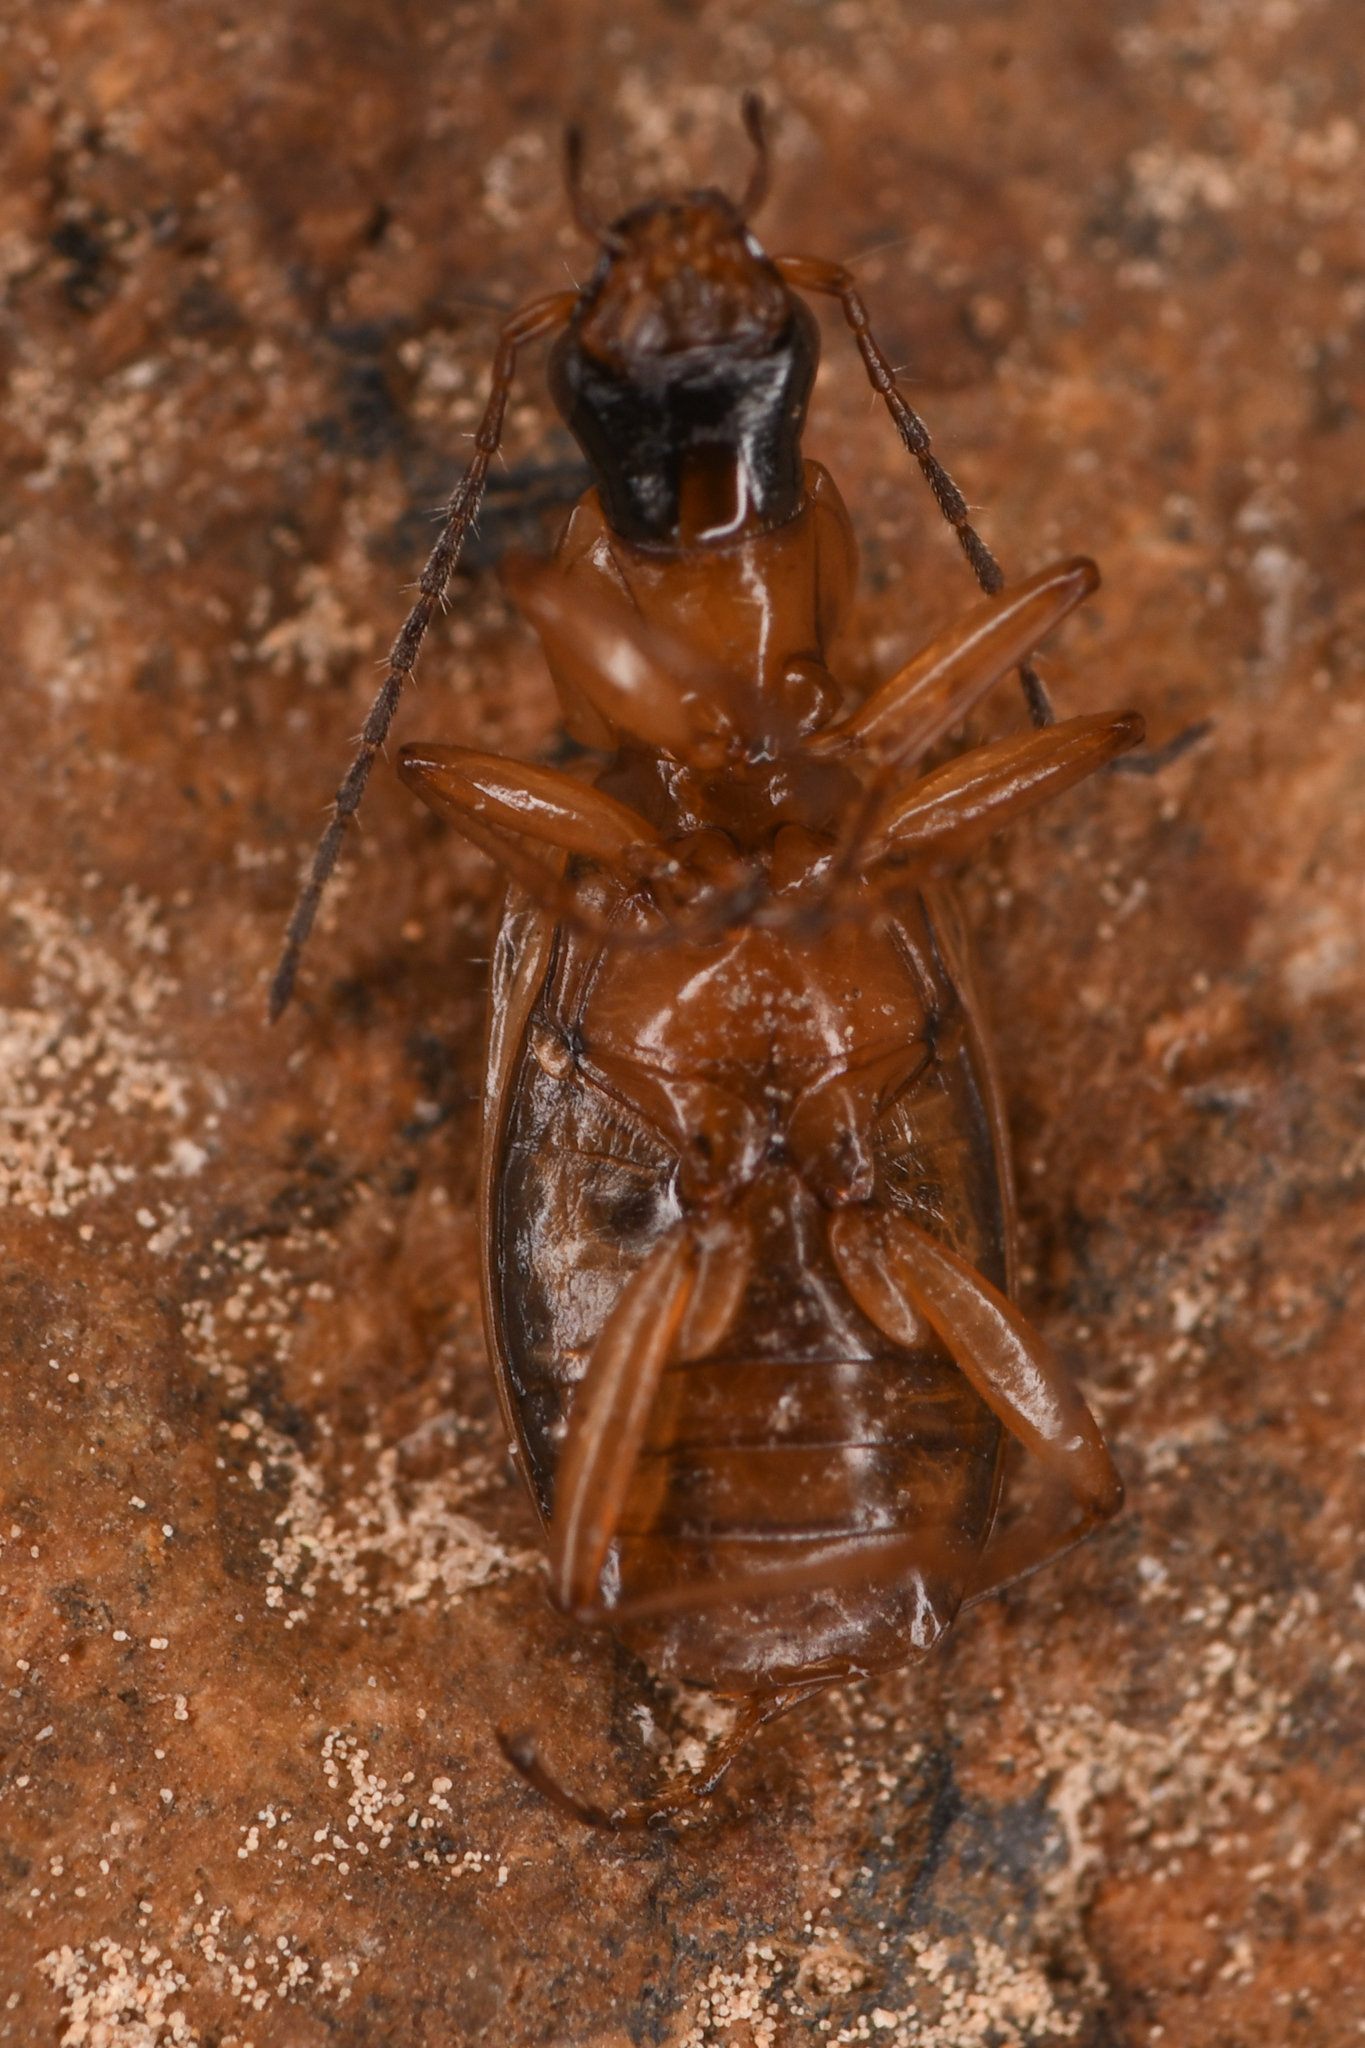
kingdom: Animalia
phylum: Arthropoda
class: Insecta
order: Coleoptera
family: Carabidae
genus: Agonum
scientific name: Agonum nigriceps
